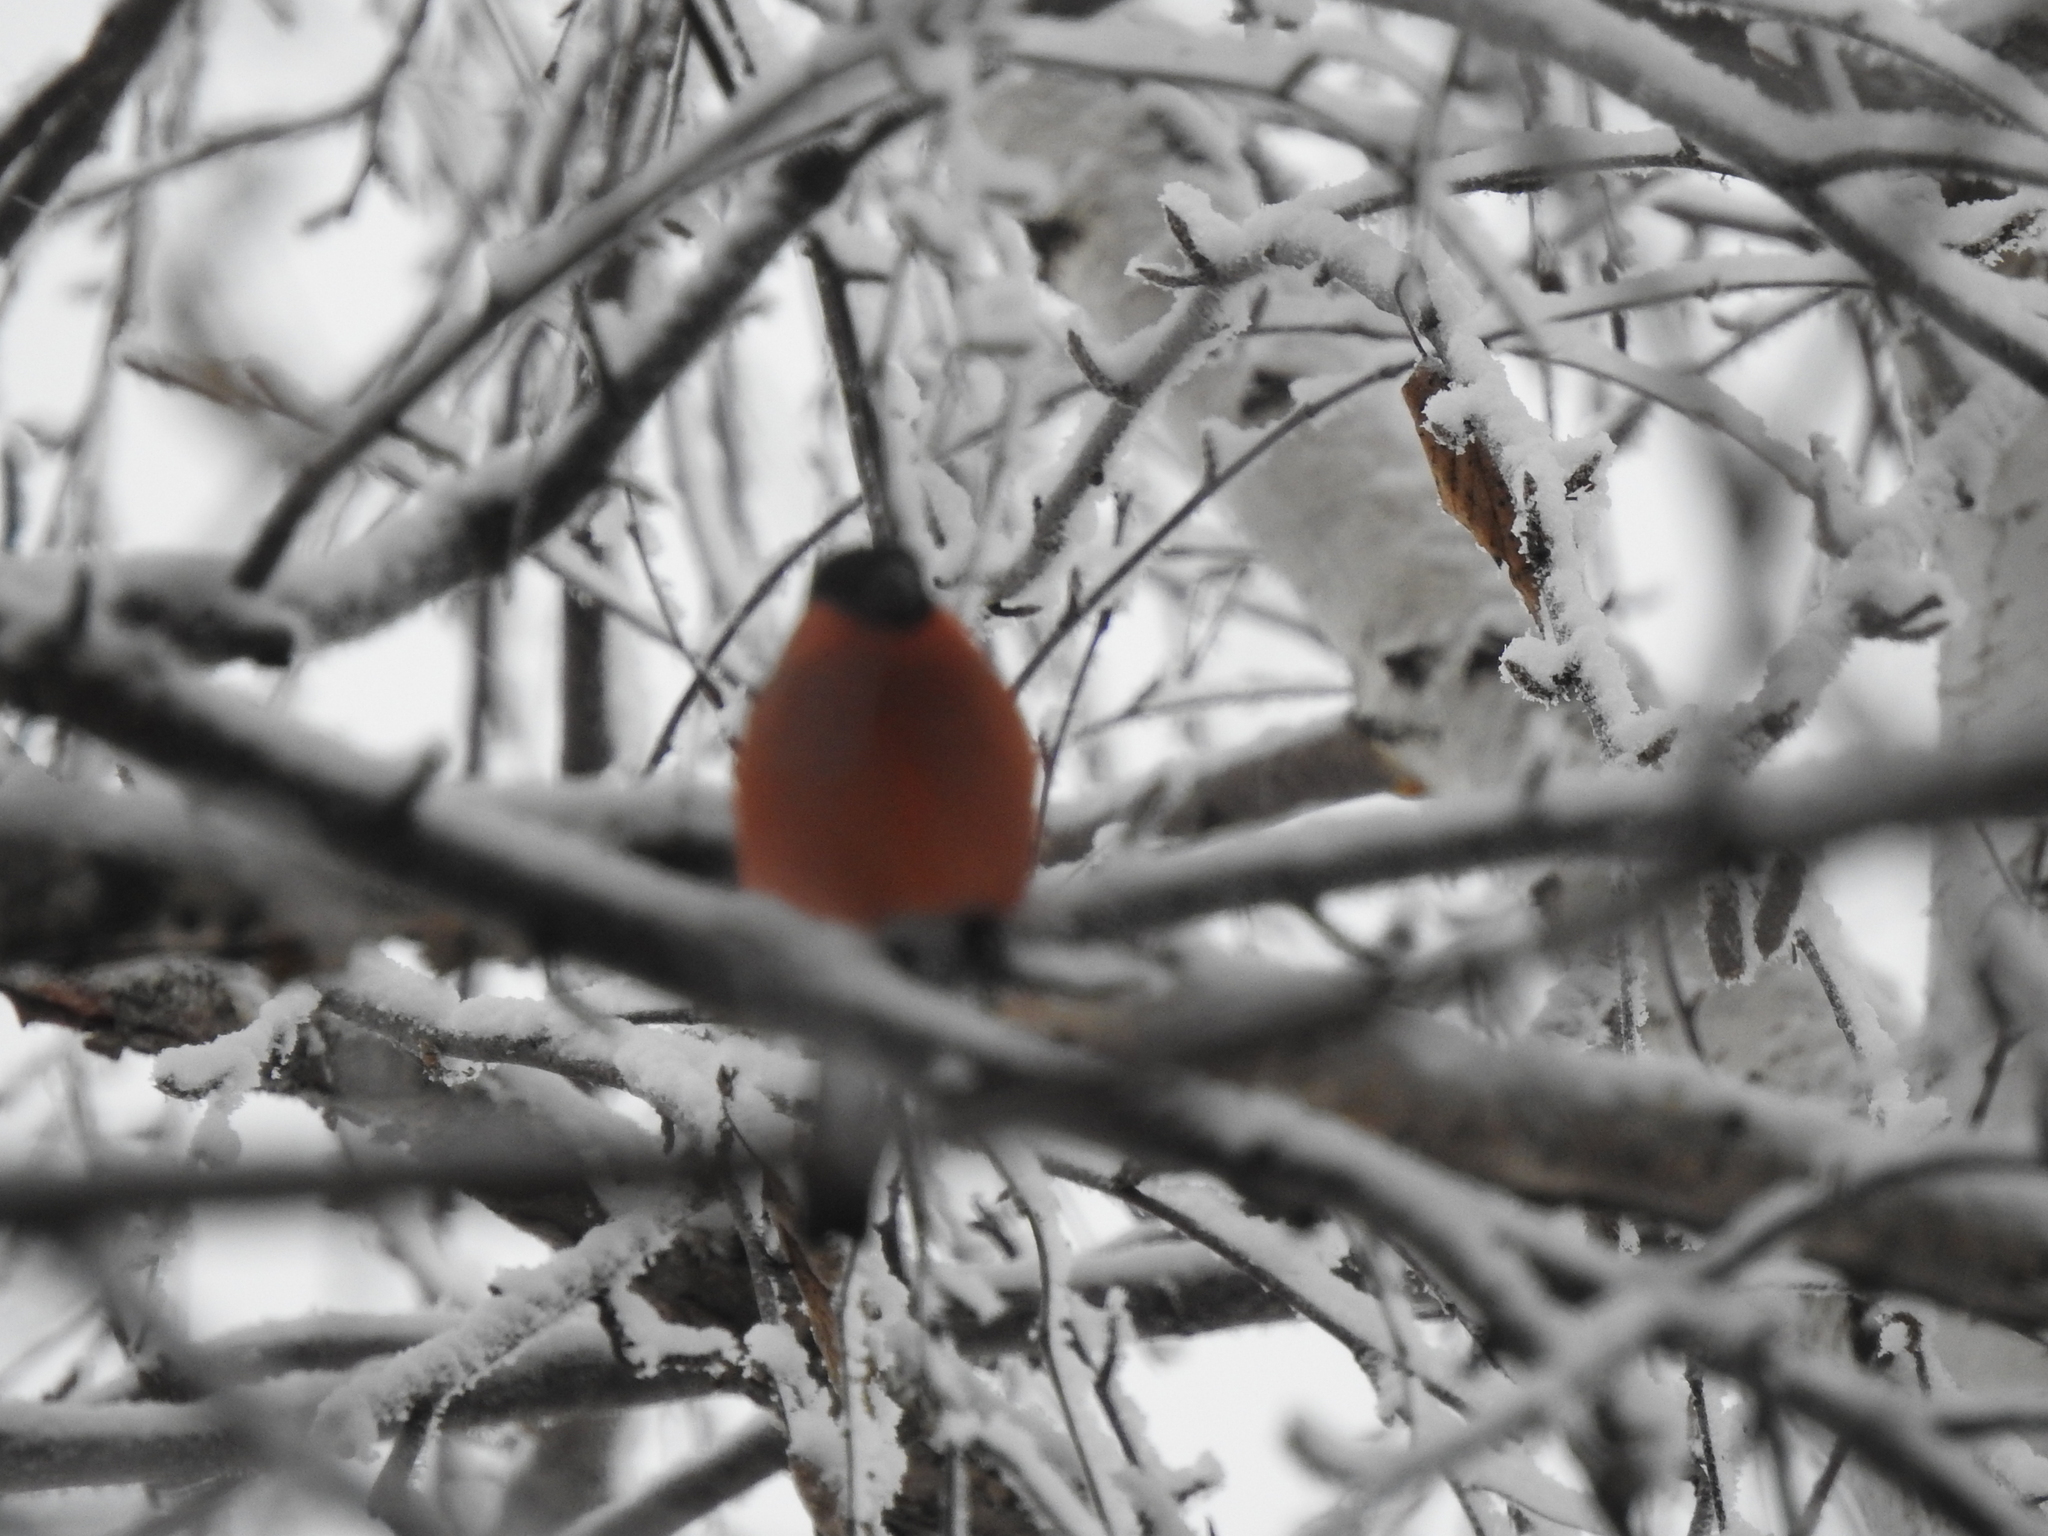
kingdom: Animalia
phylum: Chordata
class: Aves
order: Passeriformes
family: Fringillidae
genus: Pyrrhula
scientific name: Pyrrhula pyrrhula
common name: Eurasian bullfinch
